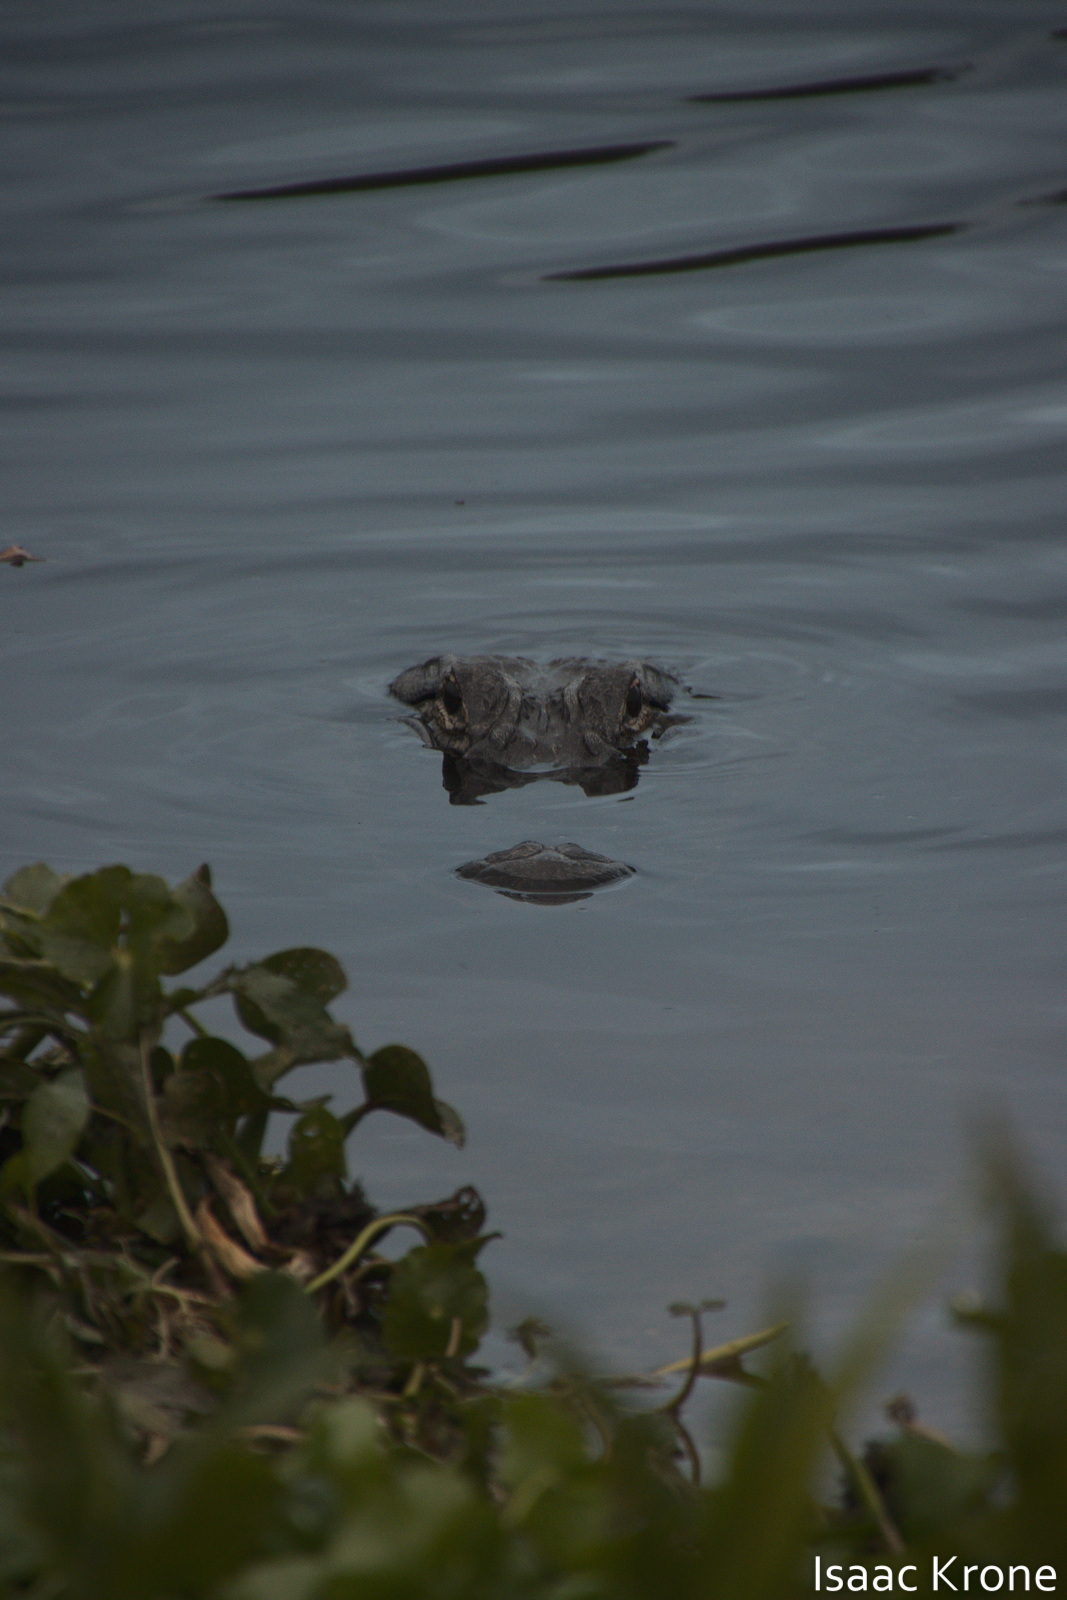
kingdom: Animalia
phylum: Chordata
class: Crocodylia
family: Alligatoridae
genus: Alligator
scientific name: Alligator mississippiensis
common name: American alligator
